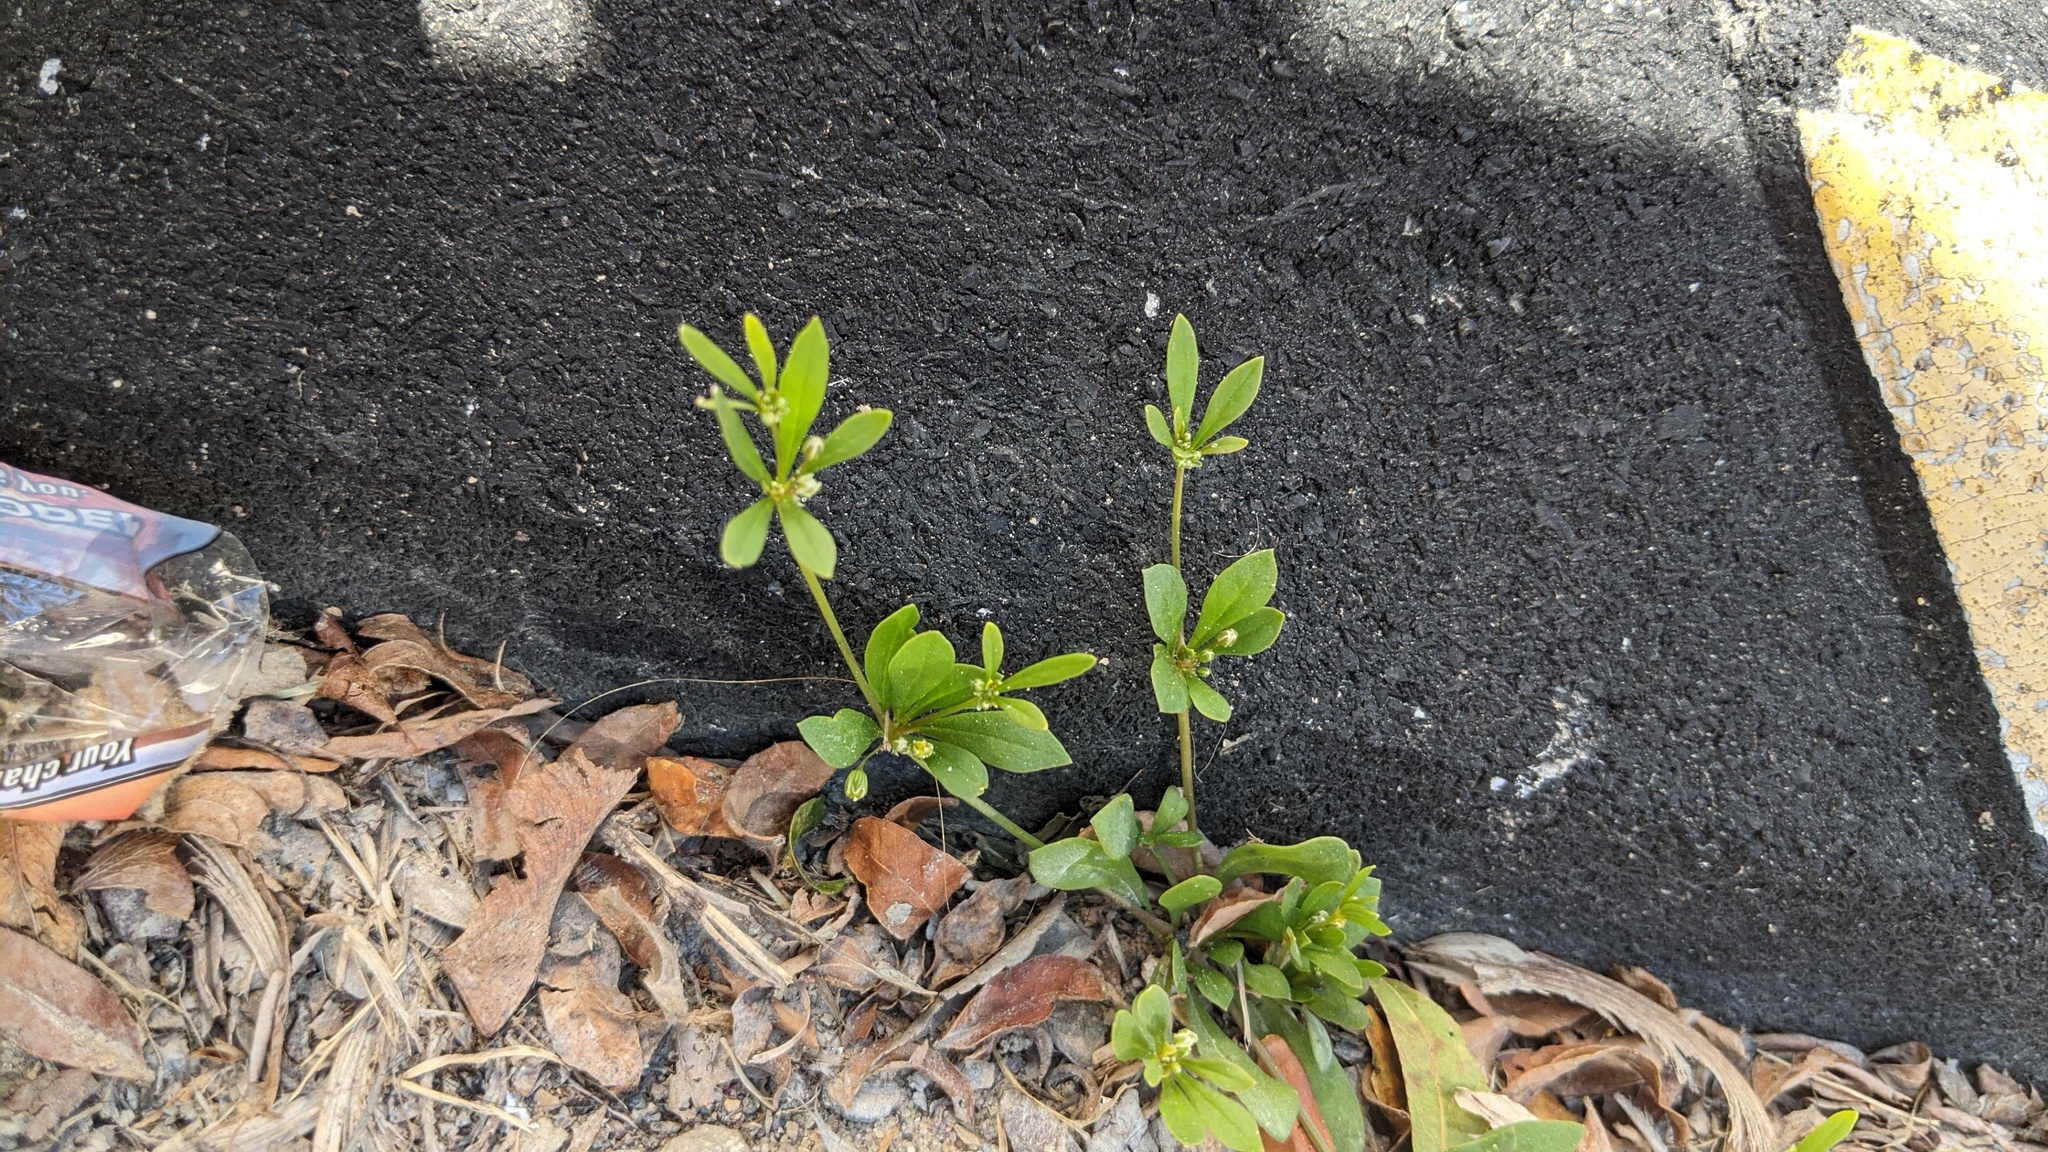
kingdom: Plantae
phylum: Tracheophyta
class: Magnoliopsida
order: Caryophyllales
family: Molluginaceae
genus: Mollugo
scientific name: Mollugo verticillata
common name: Green carpetweed
